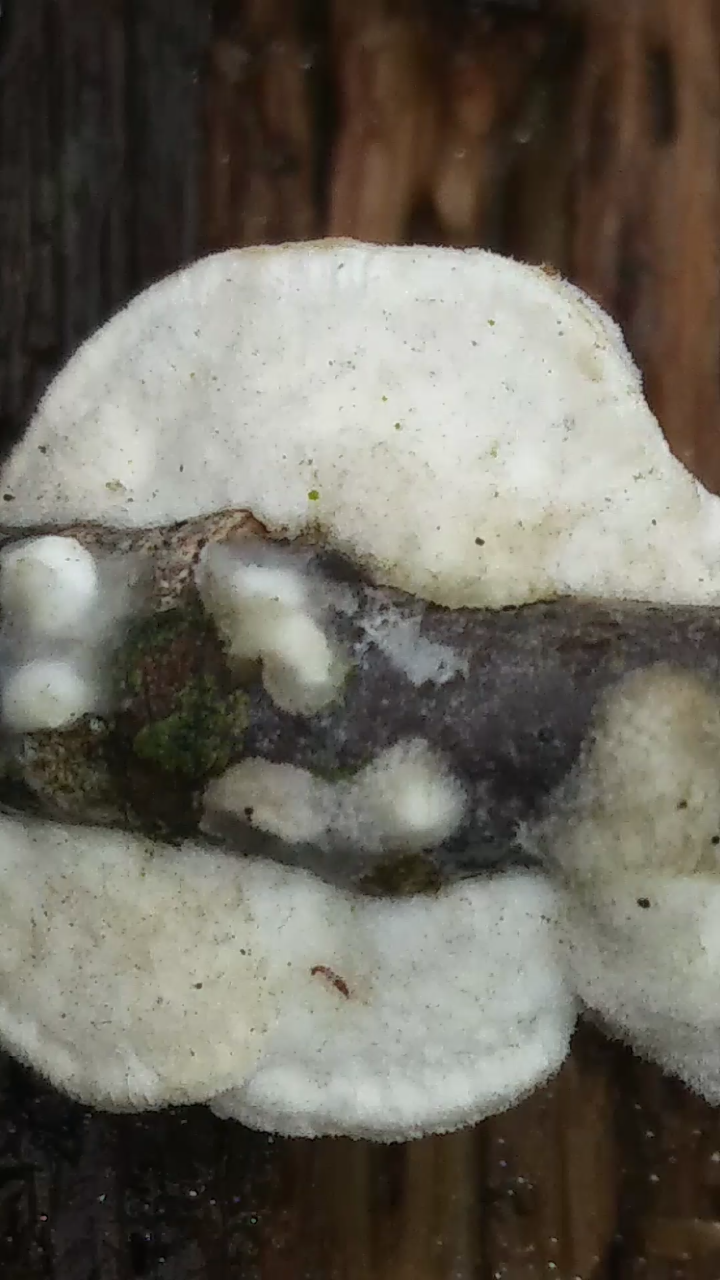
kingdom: Animalia
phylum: Arthropoda
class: Insecta
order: Lepidoptera
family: Erebidae
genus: Lascoria
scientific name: Lascoria ambigualis
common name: Ambiguous moth
